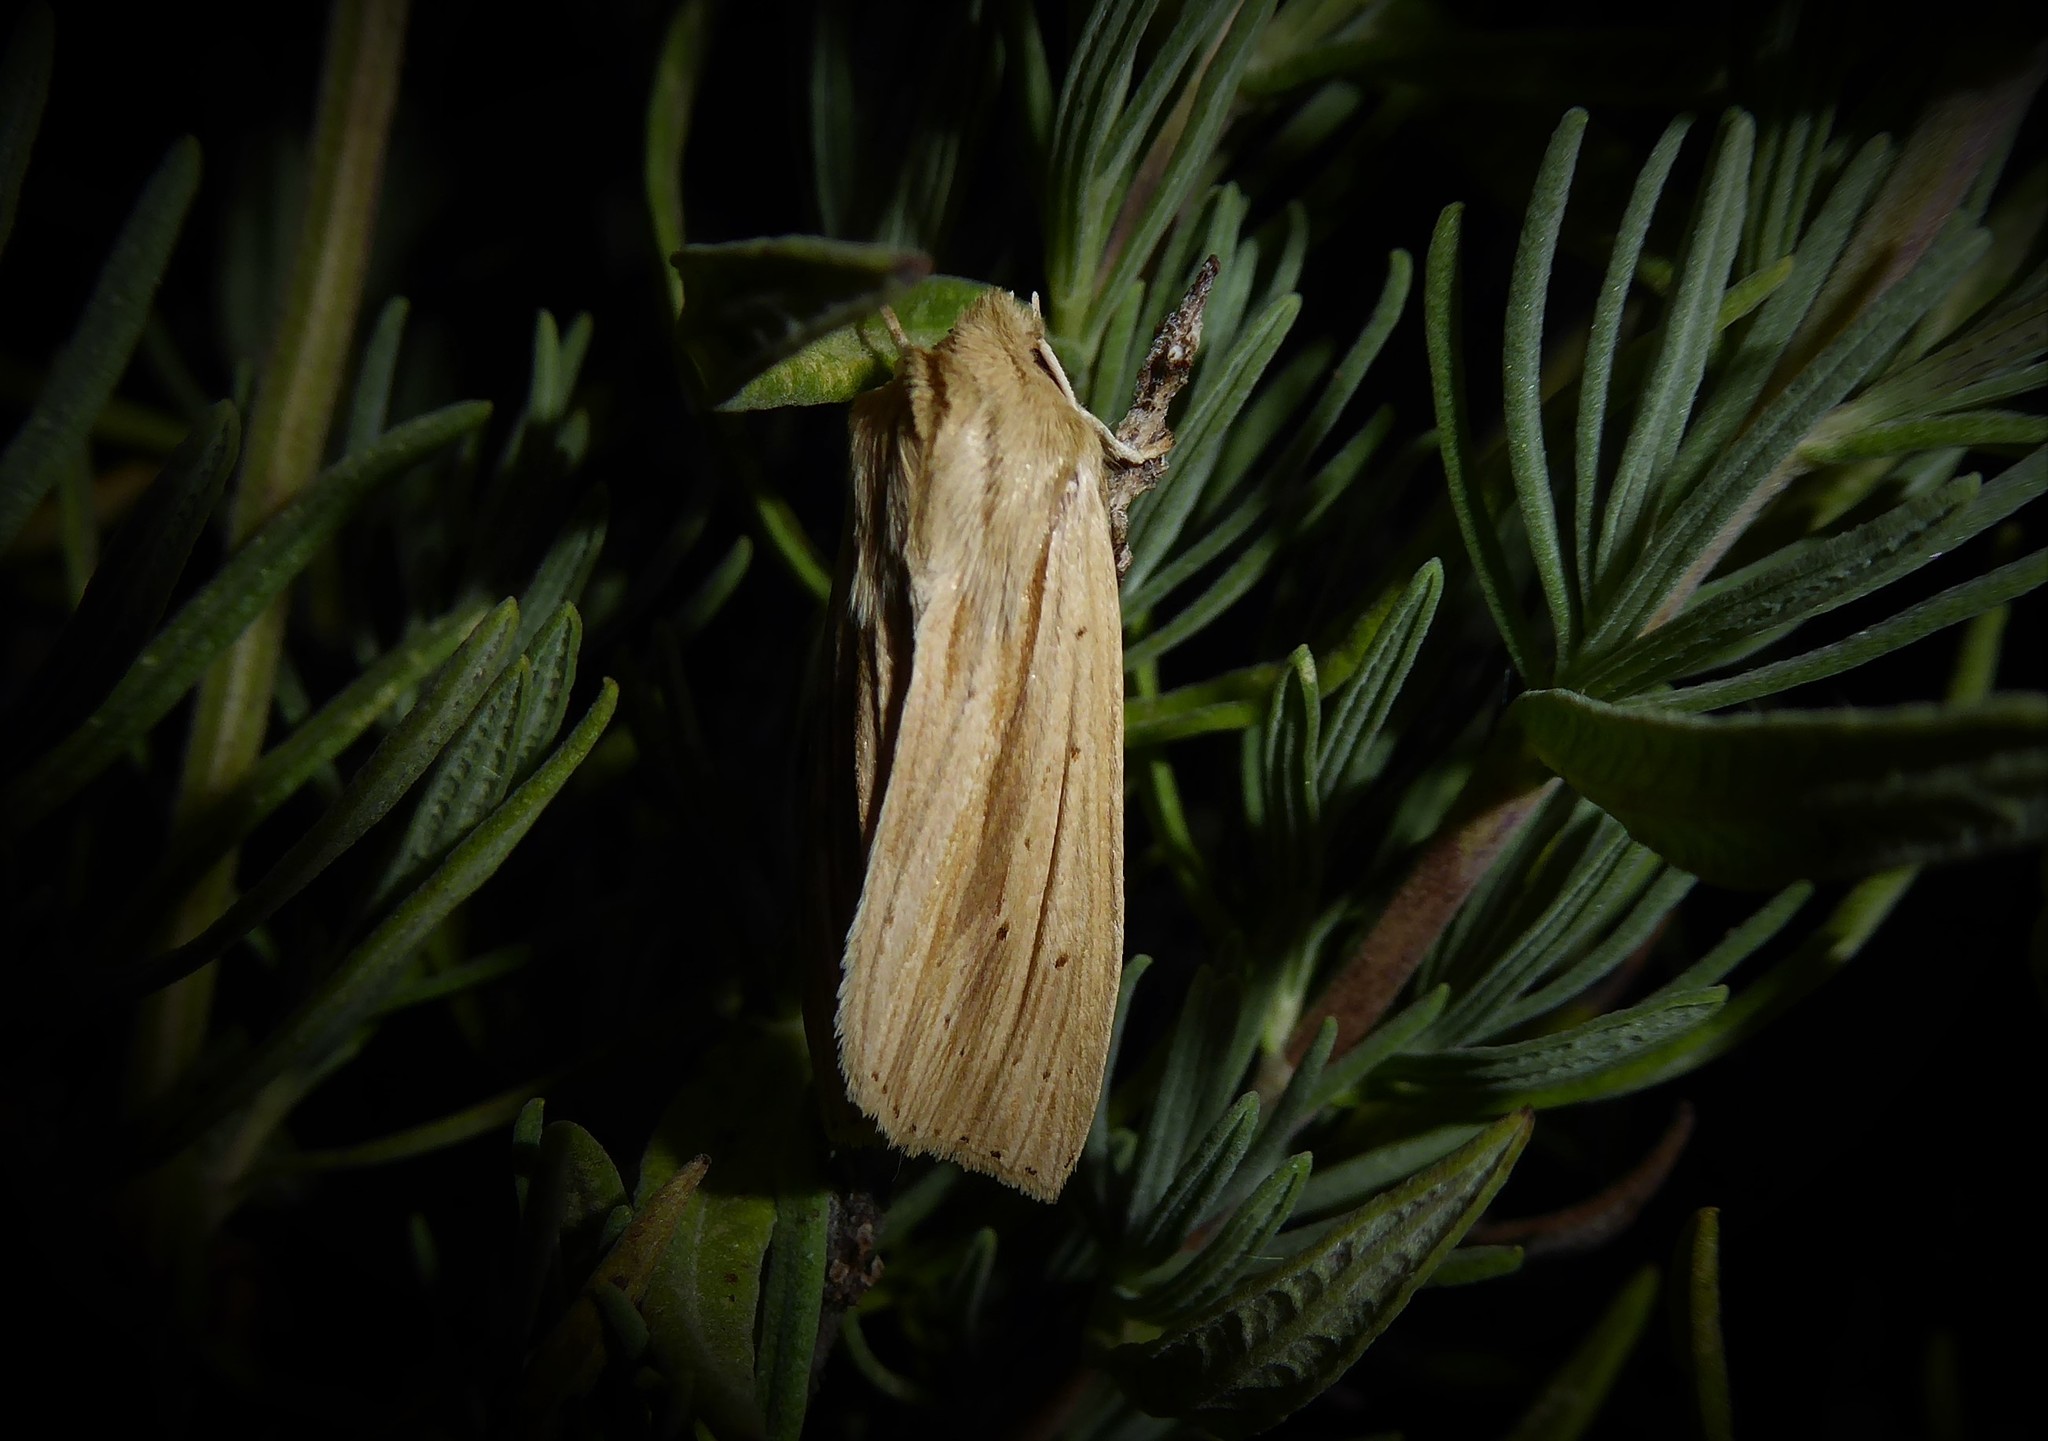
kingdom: Animalia
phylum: Arthropoda
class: Insecta
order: Lepidoptera
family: Noctuidae
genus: Ichneutica
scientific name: Ichneutica semivittata
